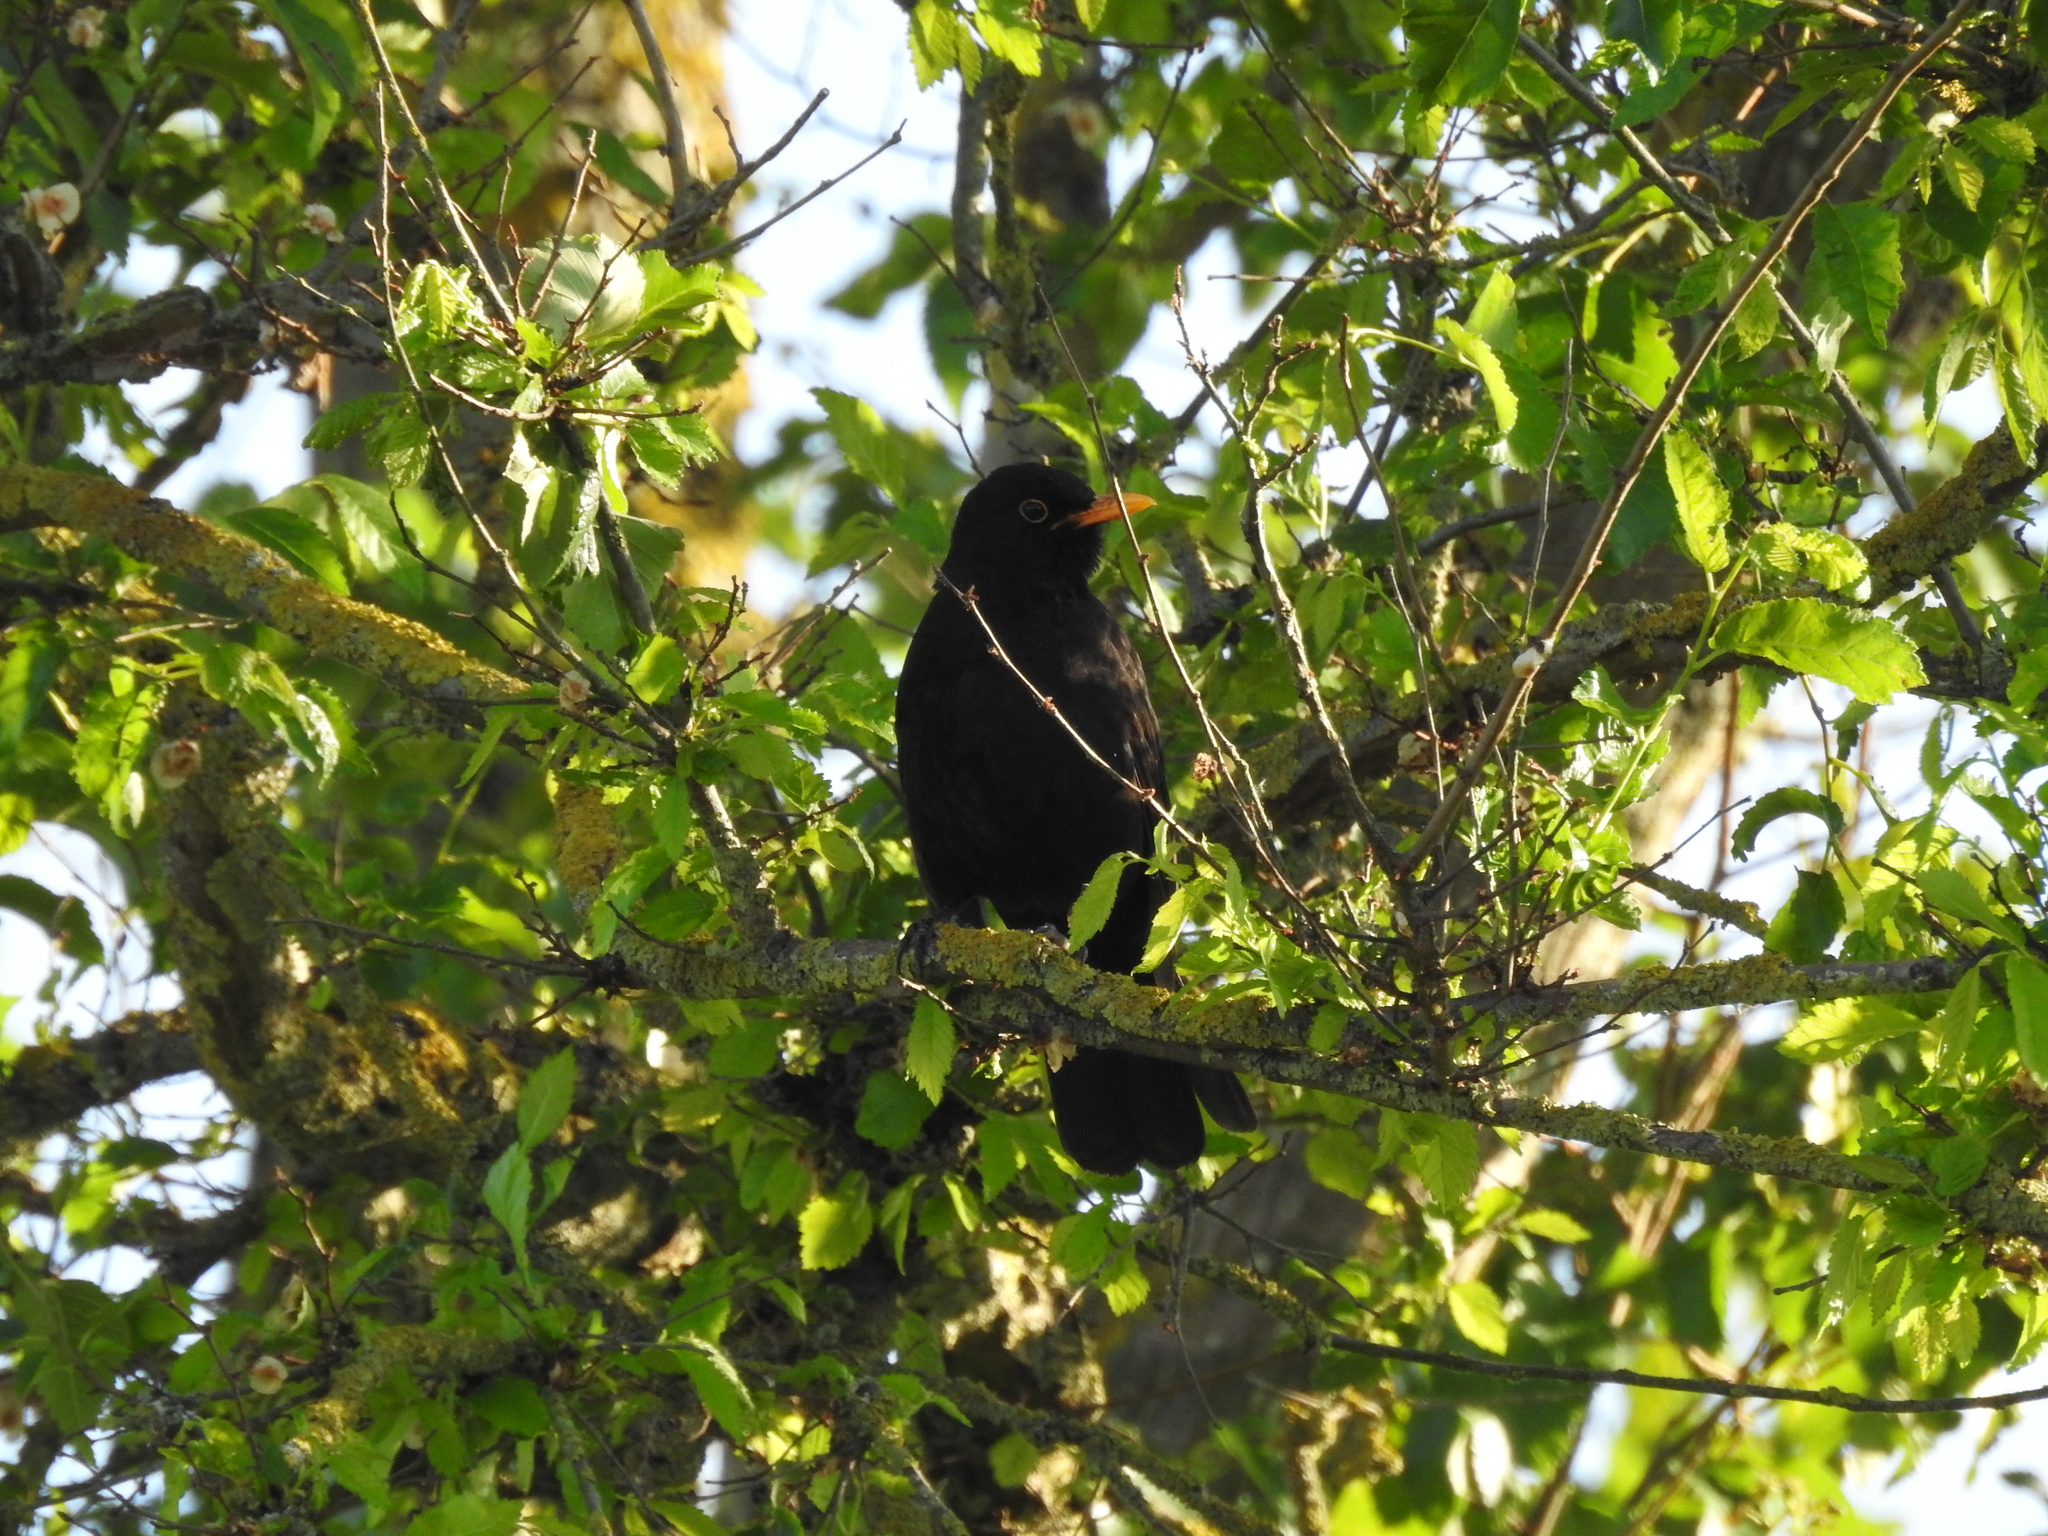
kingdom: Animalia
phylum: Chordata
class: Aves
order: Passeriformes
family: Turdidae
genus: Turdus
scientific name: Turdus merula
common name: Common blackbird
